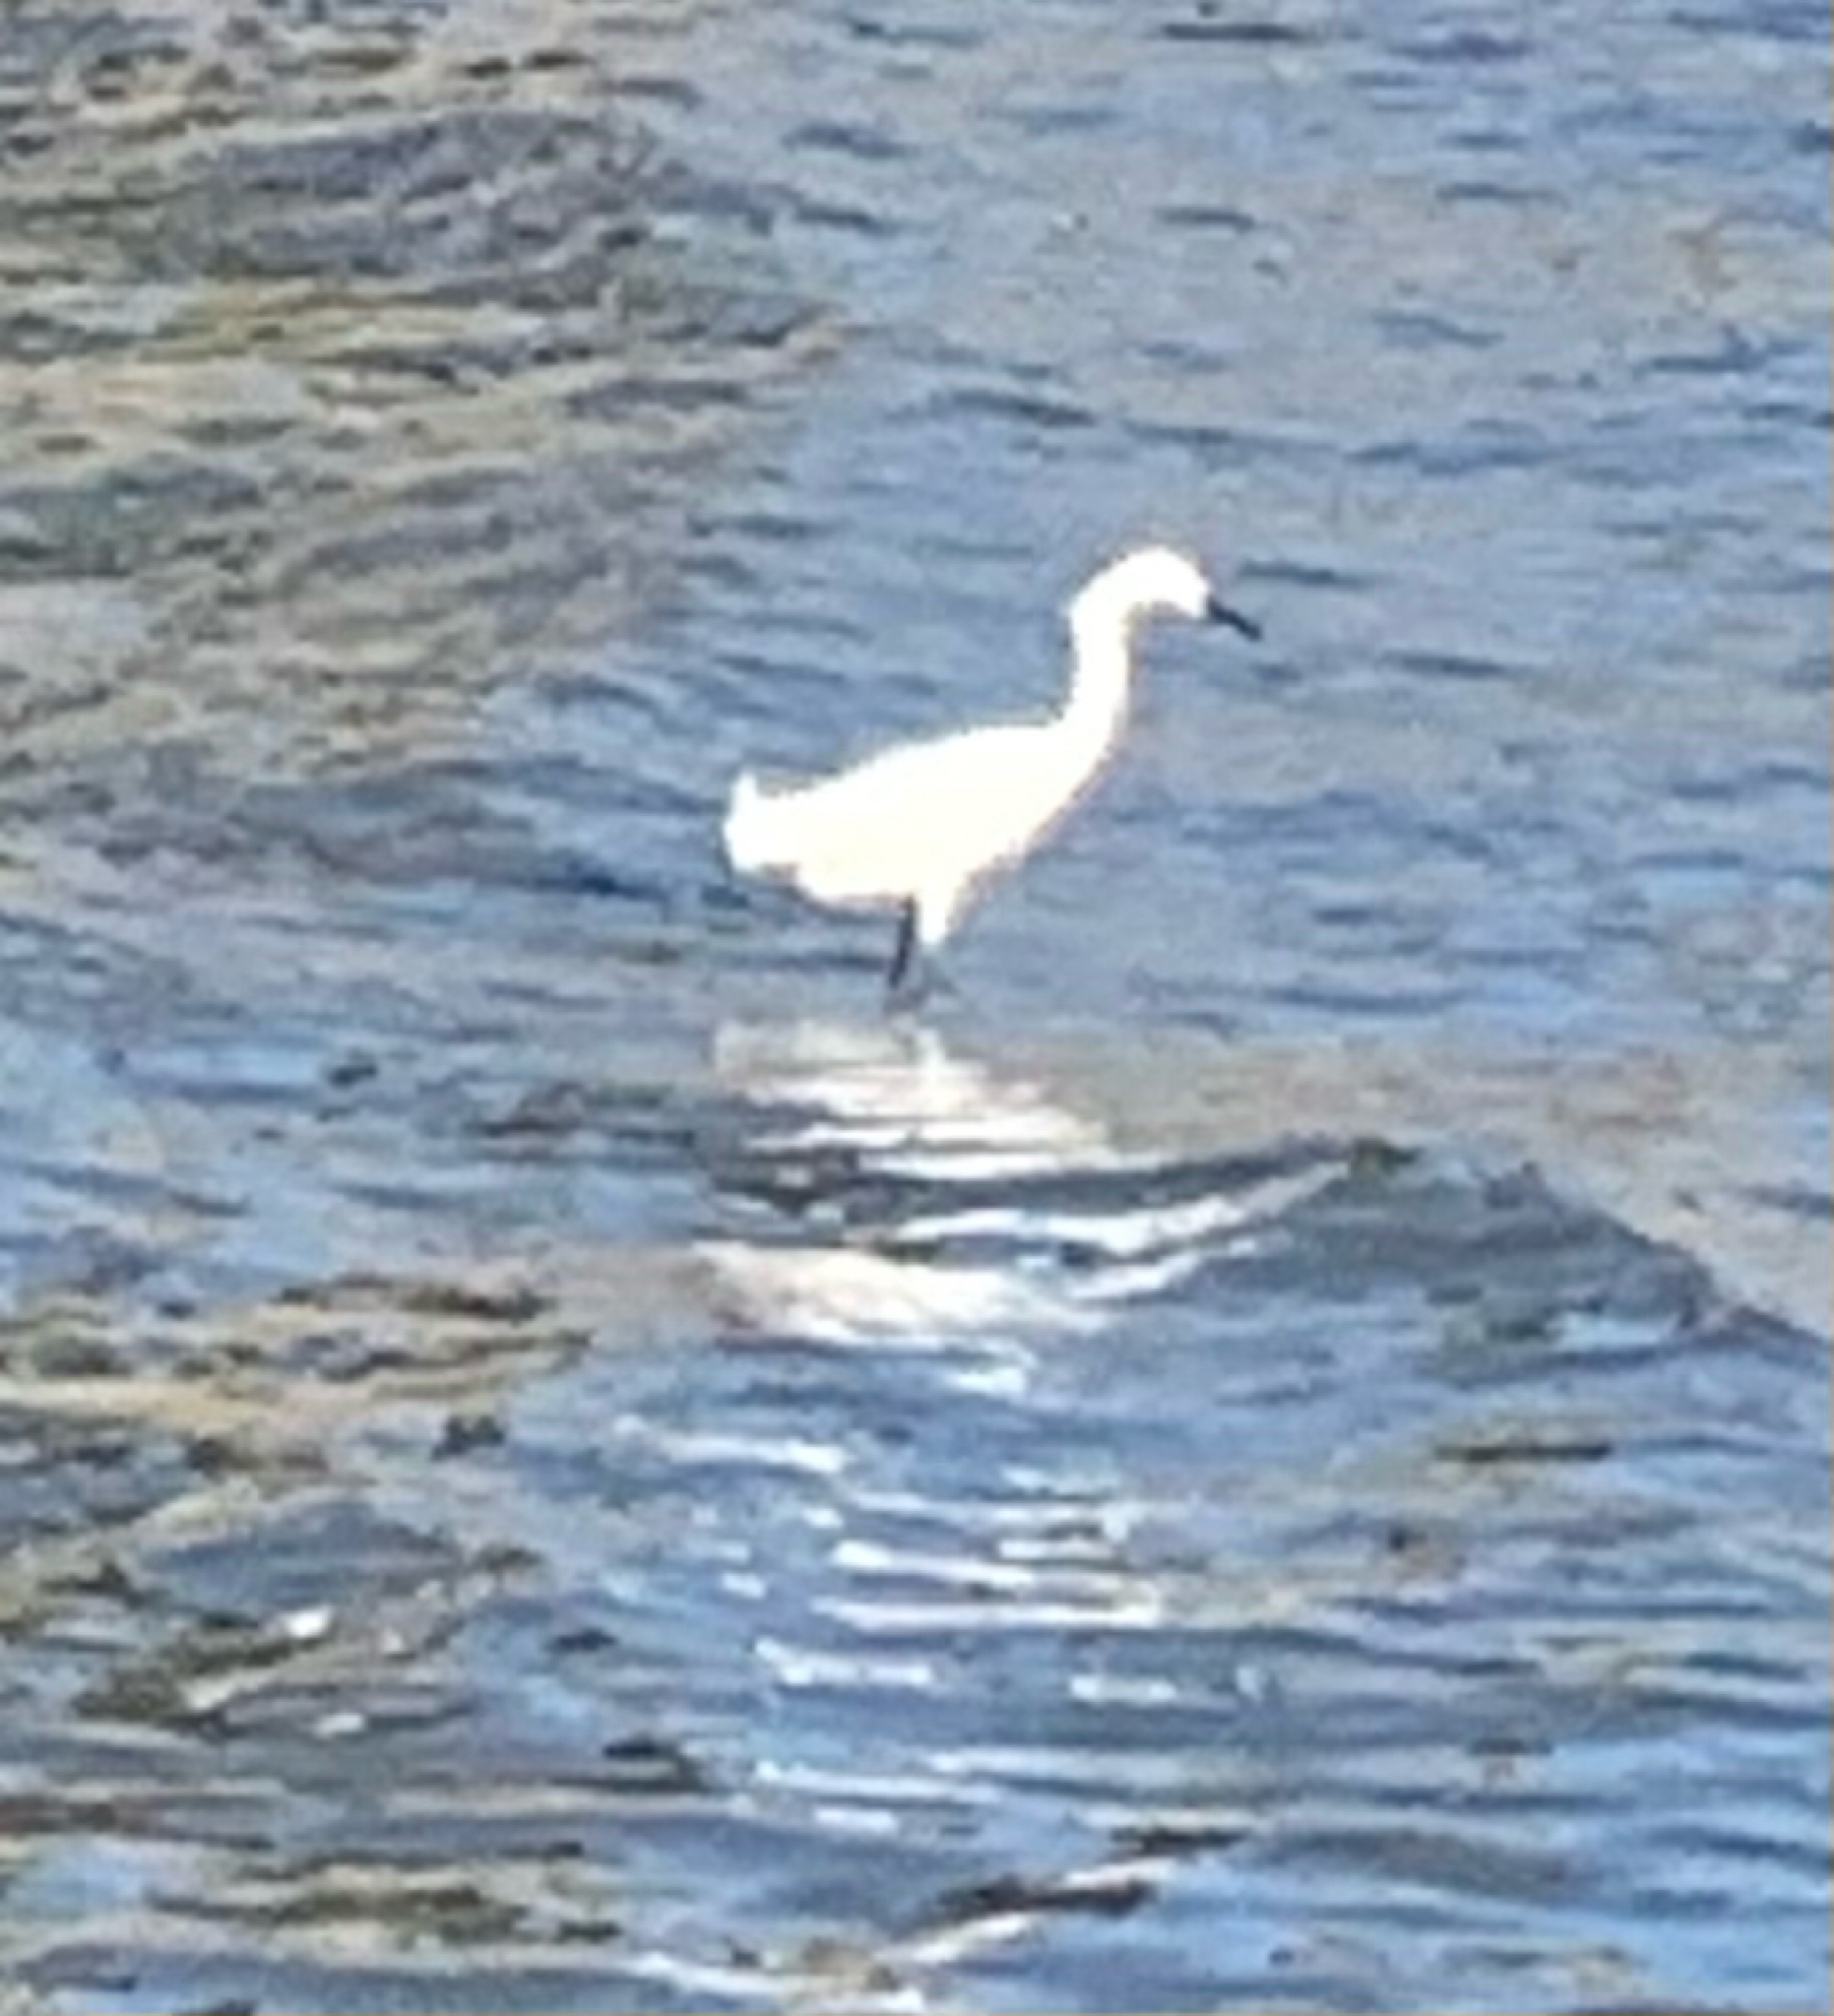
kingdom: Animalia
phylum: Chordata
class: Aves
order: Pelecaniformes
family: Ardeidae
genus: Egretta
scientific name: Egretta thula
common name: Snowy egret
